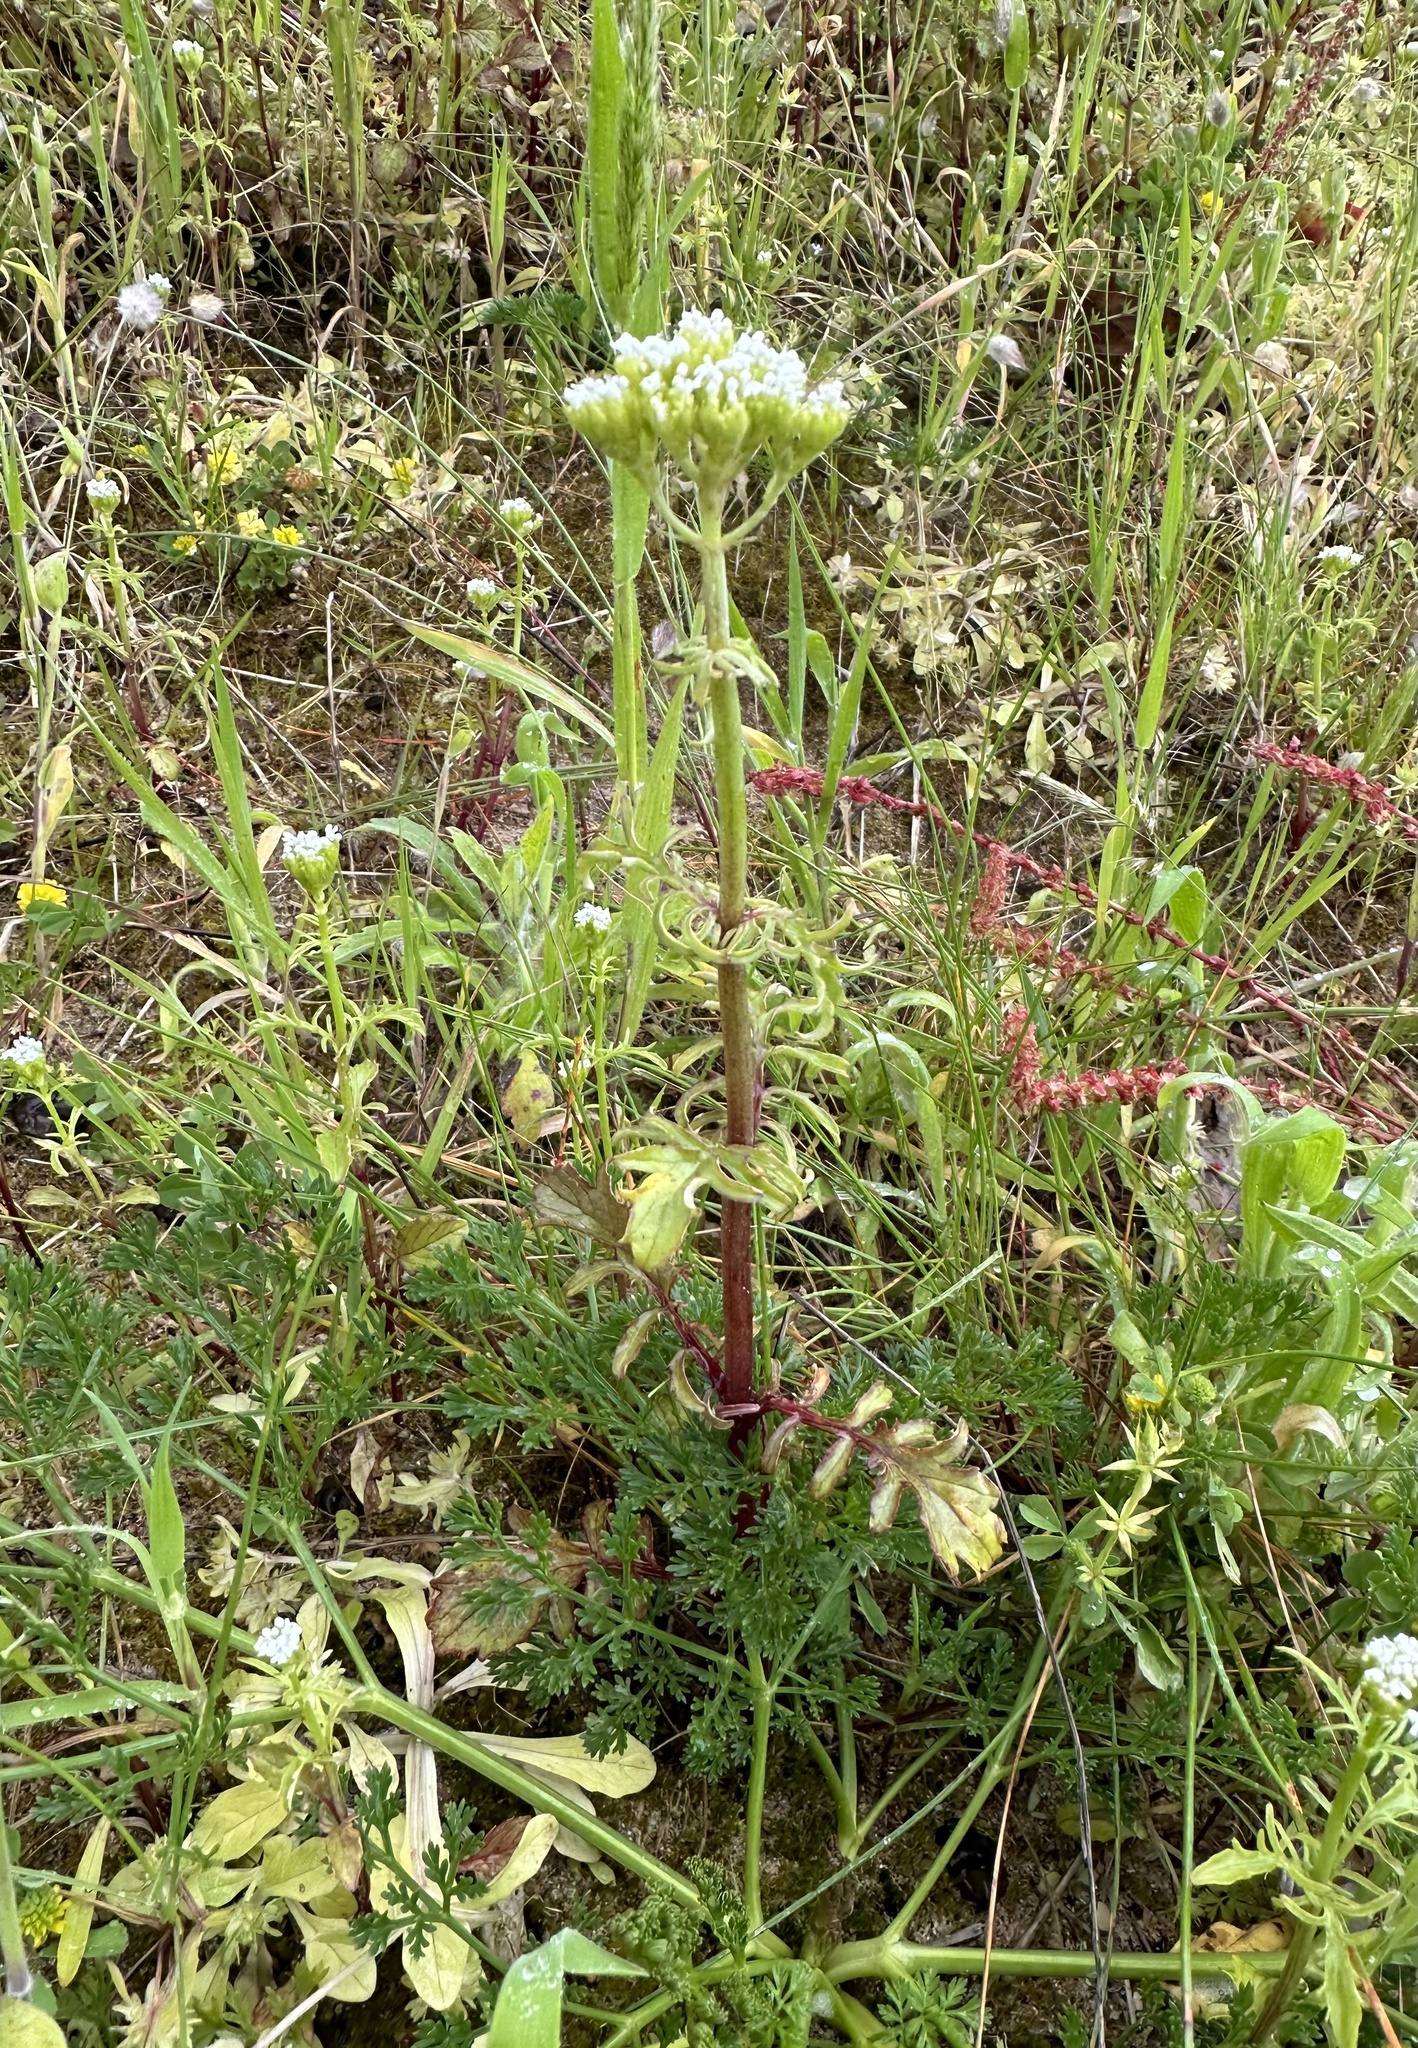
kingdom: Plantae
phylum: Tracheophyta
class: Magnoliopsida
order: Dipsacales
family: Caprifoliaceae
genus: Centranthus
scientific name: Centranthus calcitrapae
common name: Annual valerian
